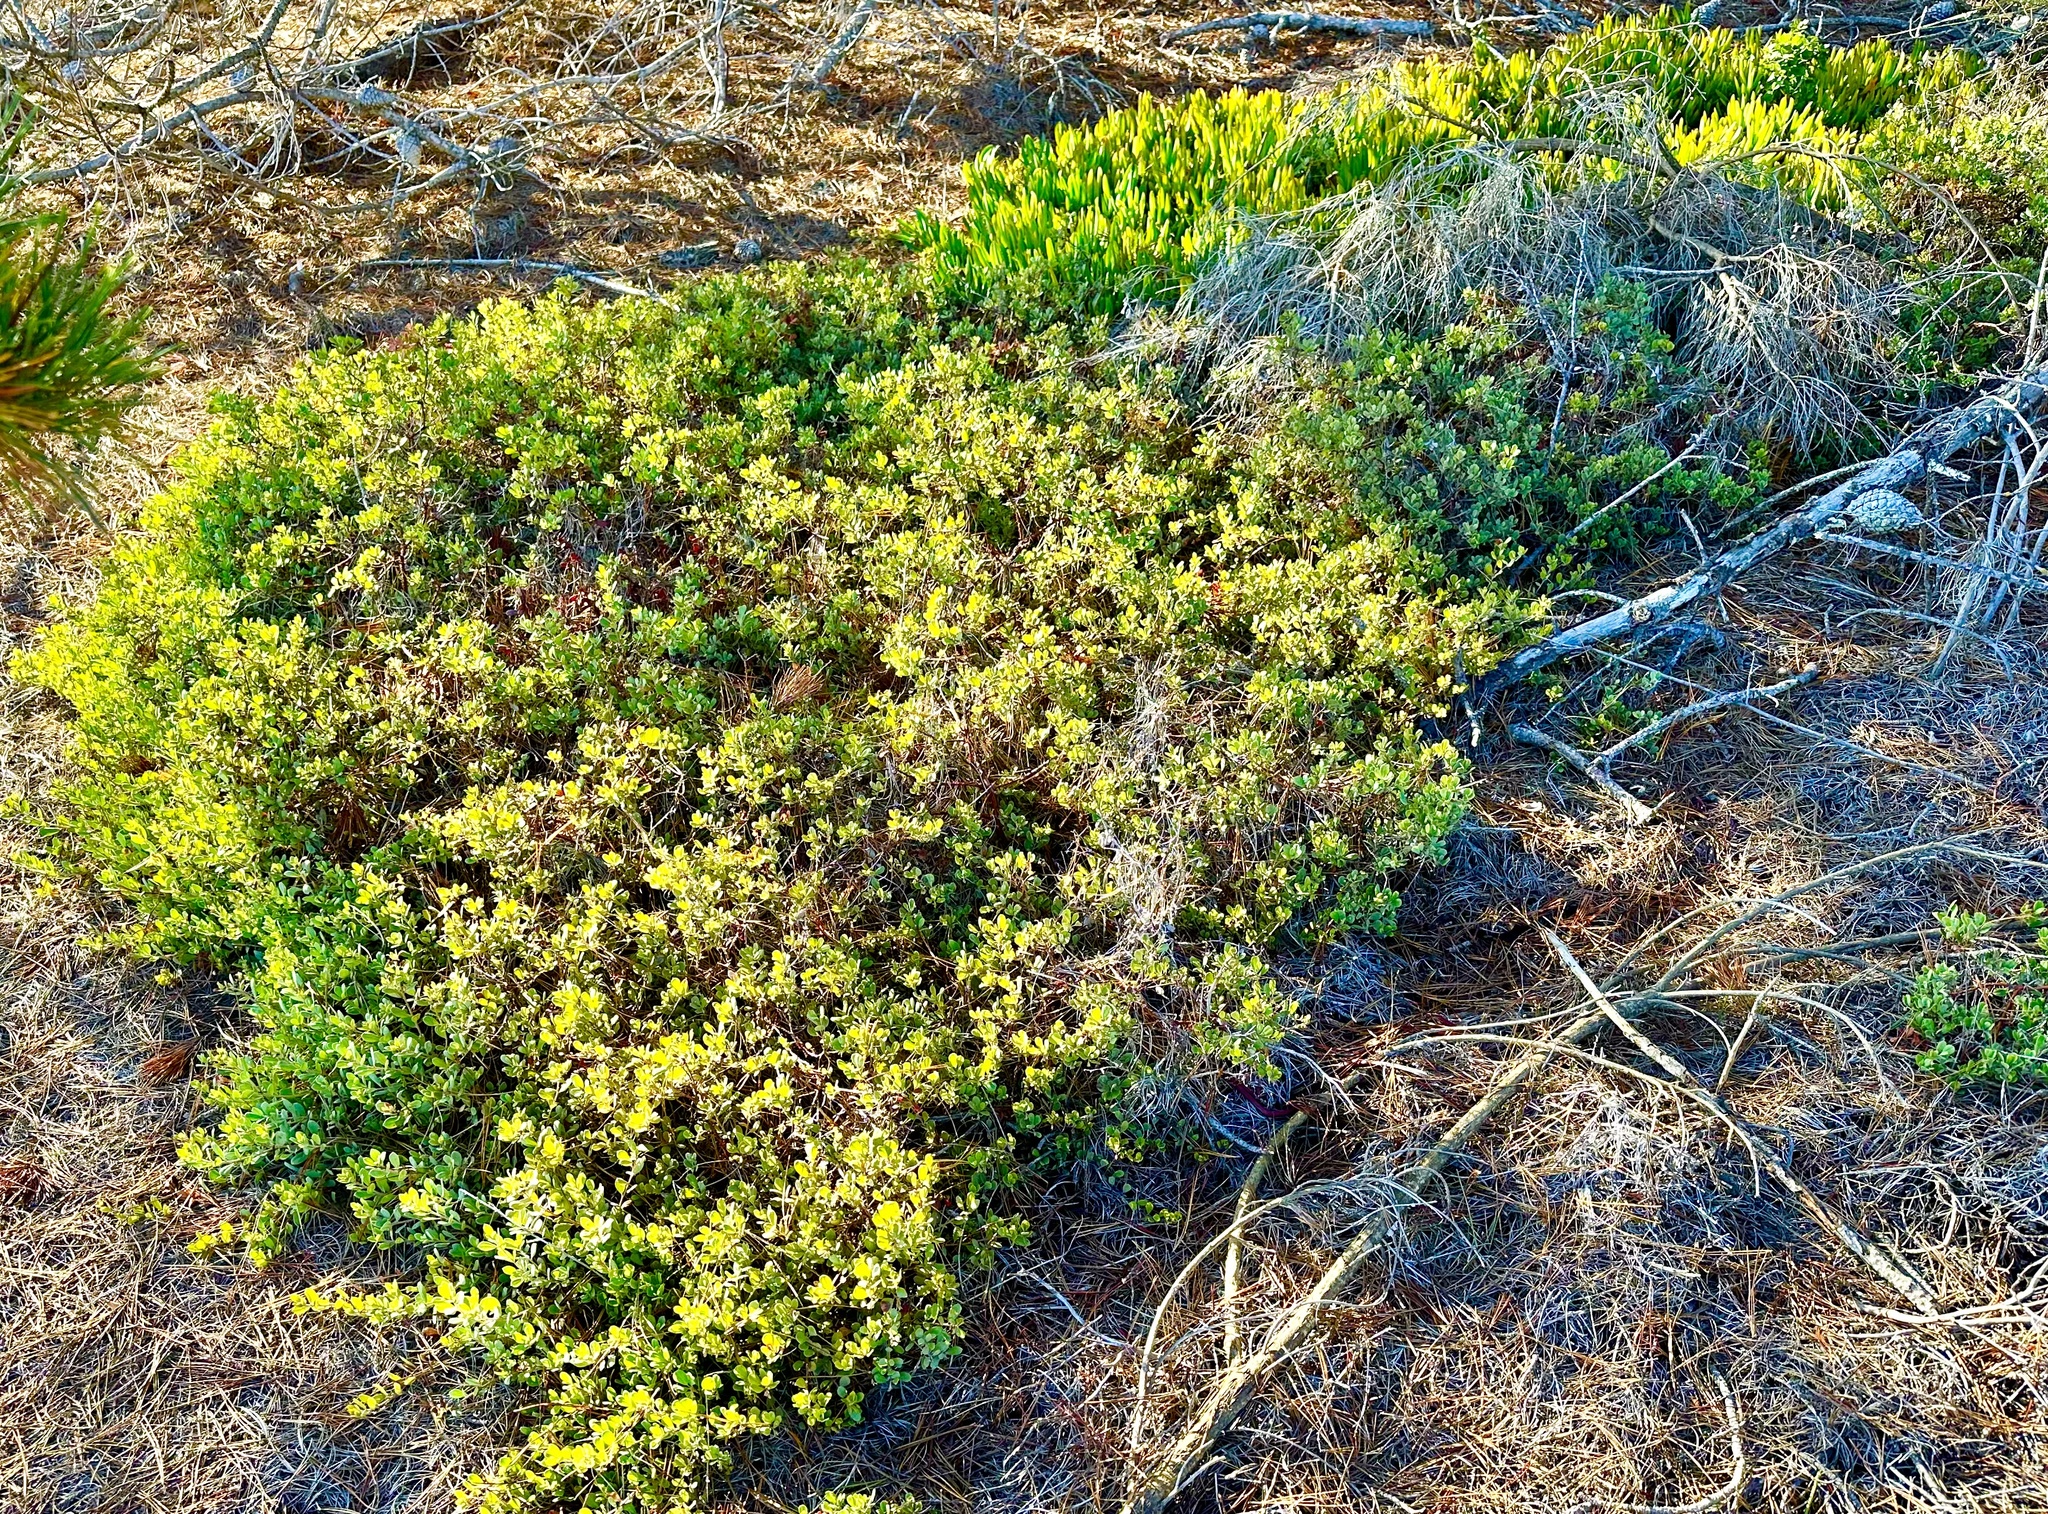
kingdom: Plantae
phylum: Tracheophyta
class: Magnoliopsida
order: Ericales
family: Ericaceae
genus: Arctostaphylos
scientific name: Arctostaphylos pumila
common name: Sandmat manzanita
